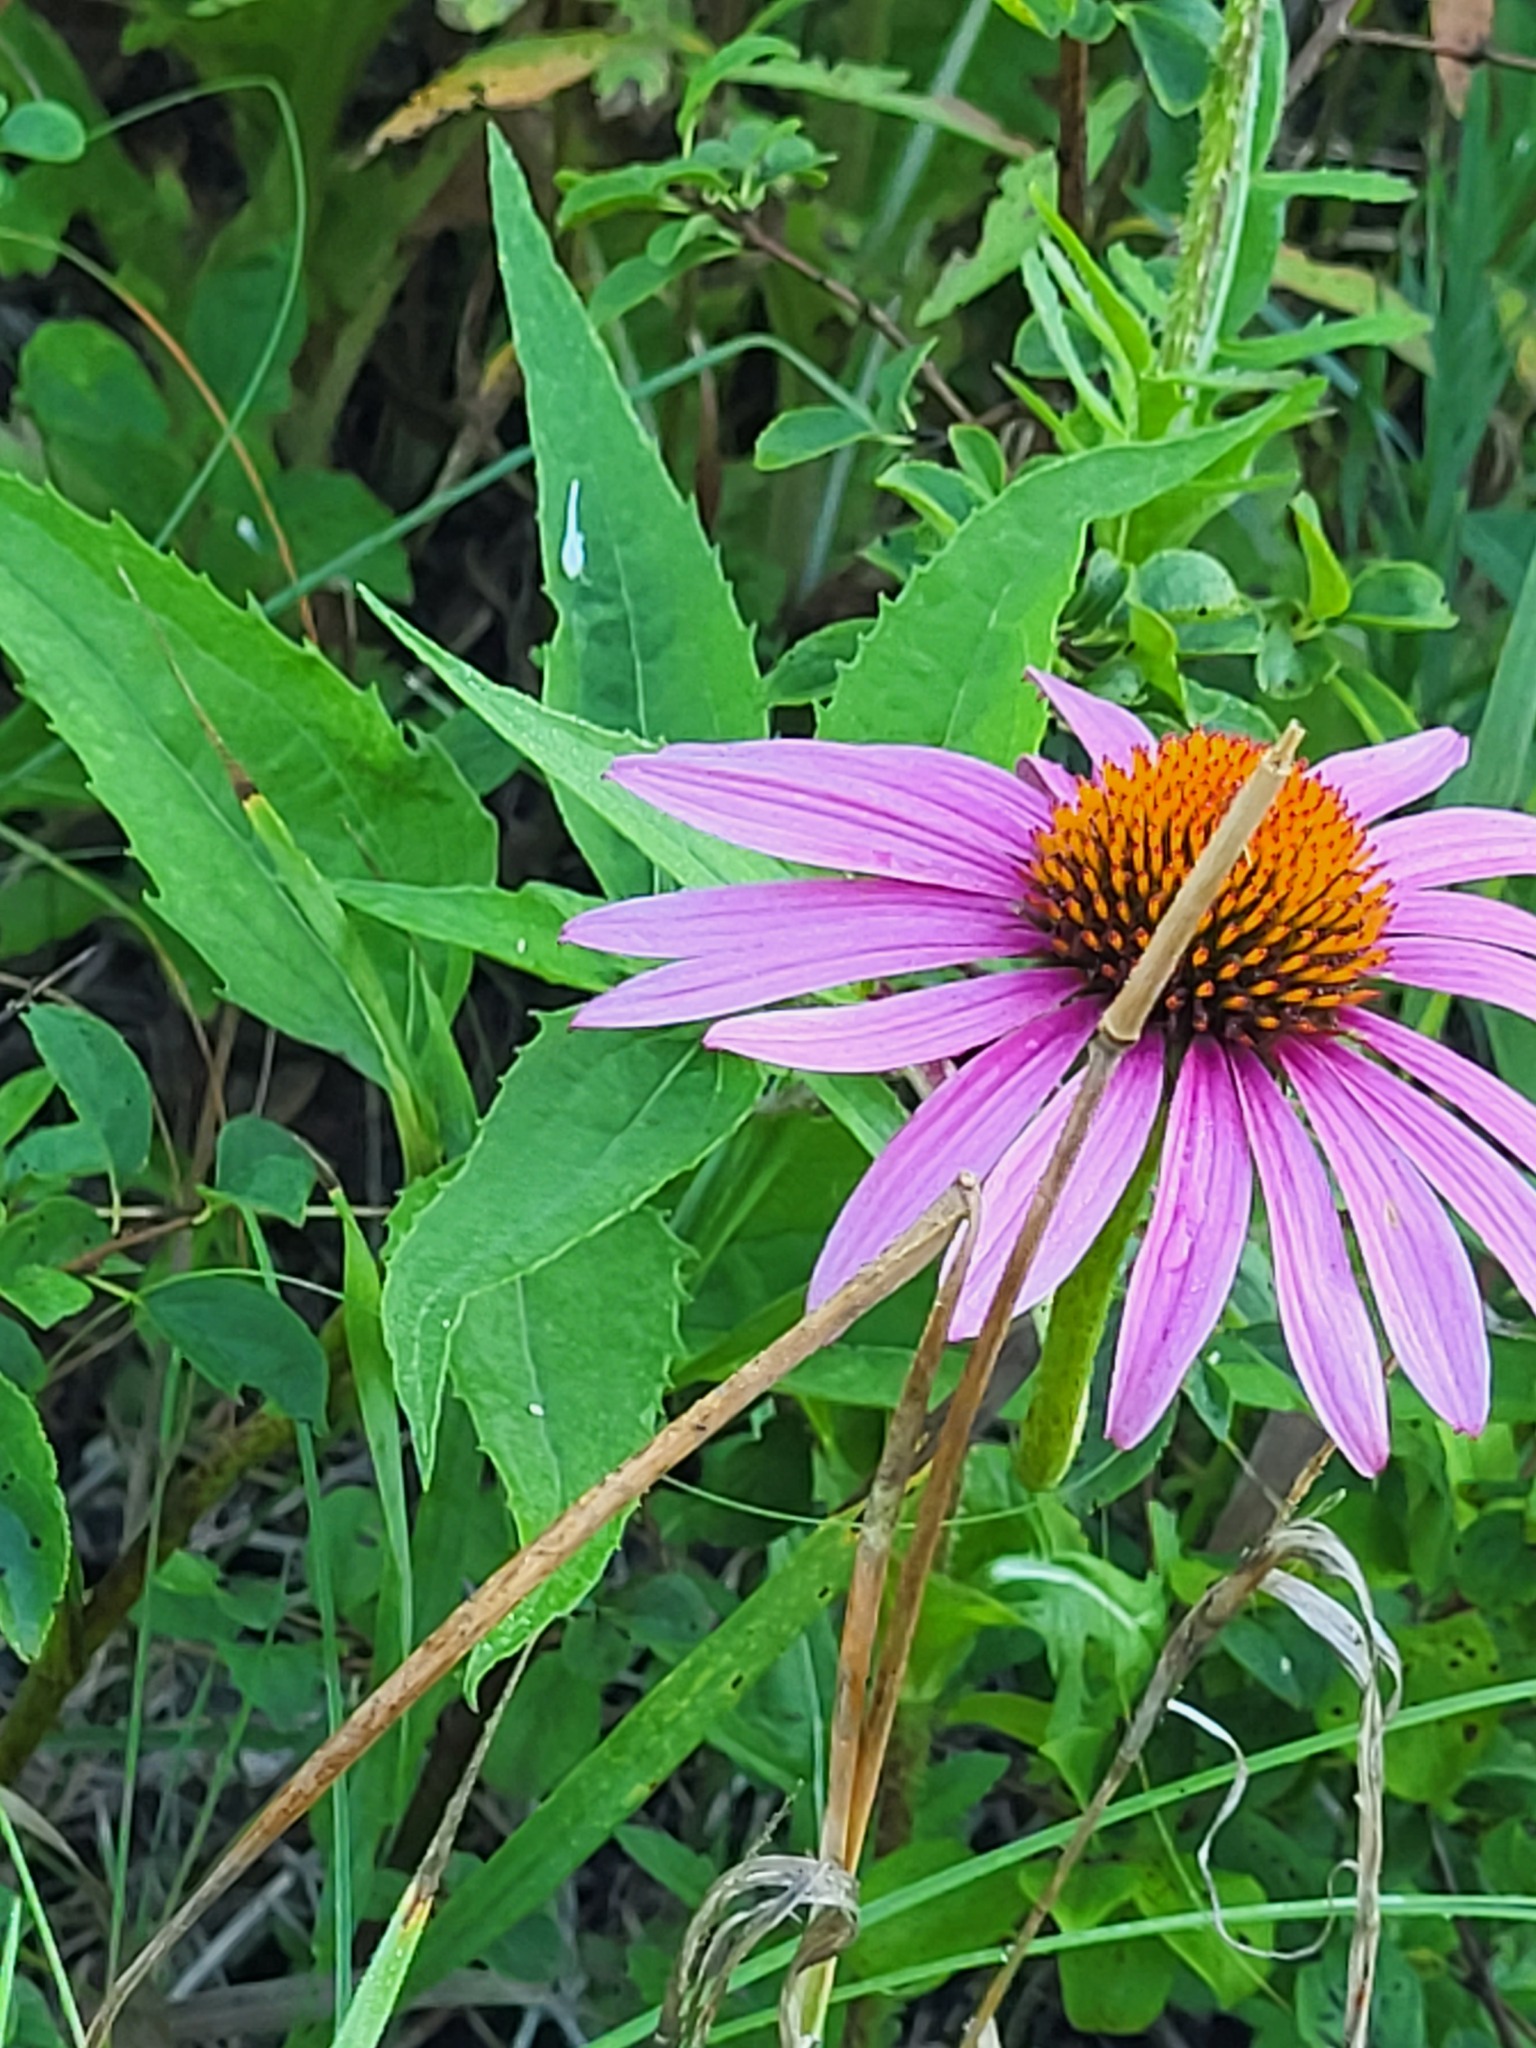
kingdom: Plantae
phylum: Tracheophyta
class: Magnoliopsida
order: Asterales
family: Asteraceae
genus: Echinacea
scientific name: Echinacea purpurea
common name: Broad-leaved purple coneflower
